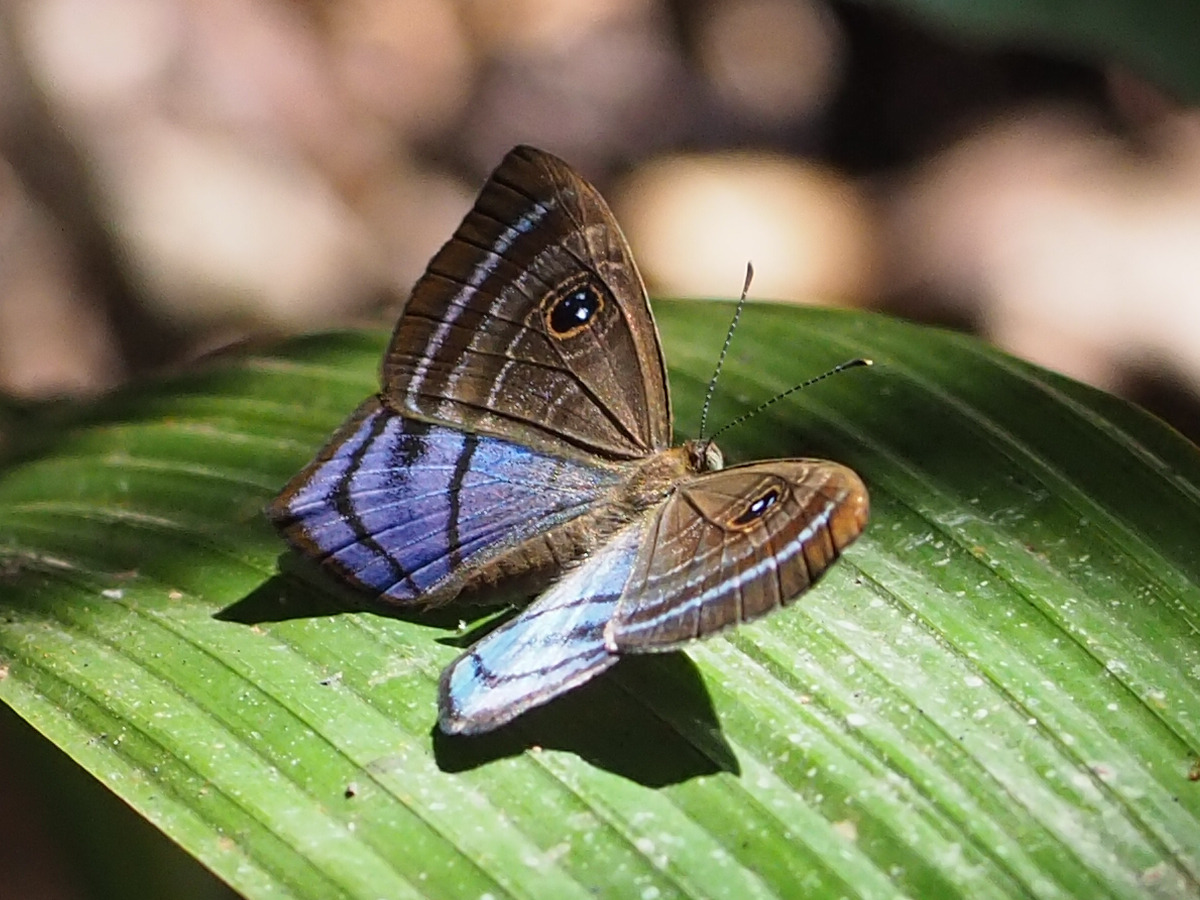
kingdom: Animalia
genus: Mesosemia
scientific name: Mesosemia lamachus
